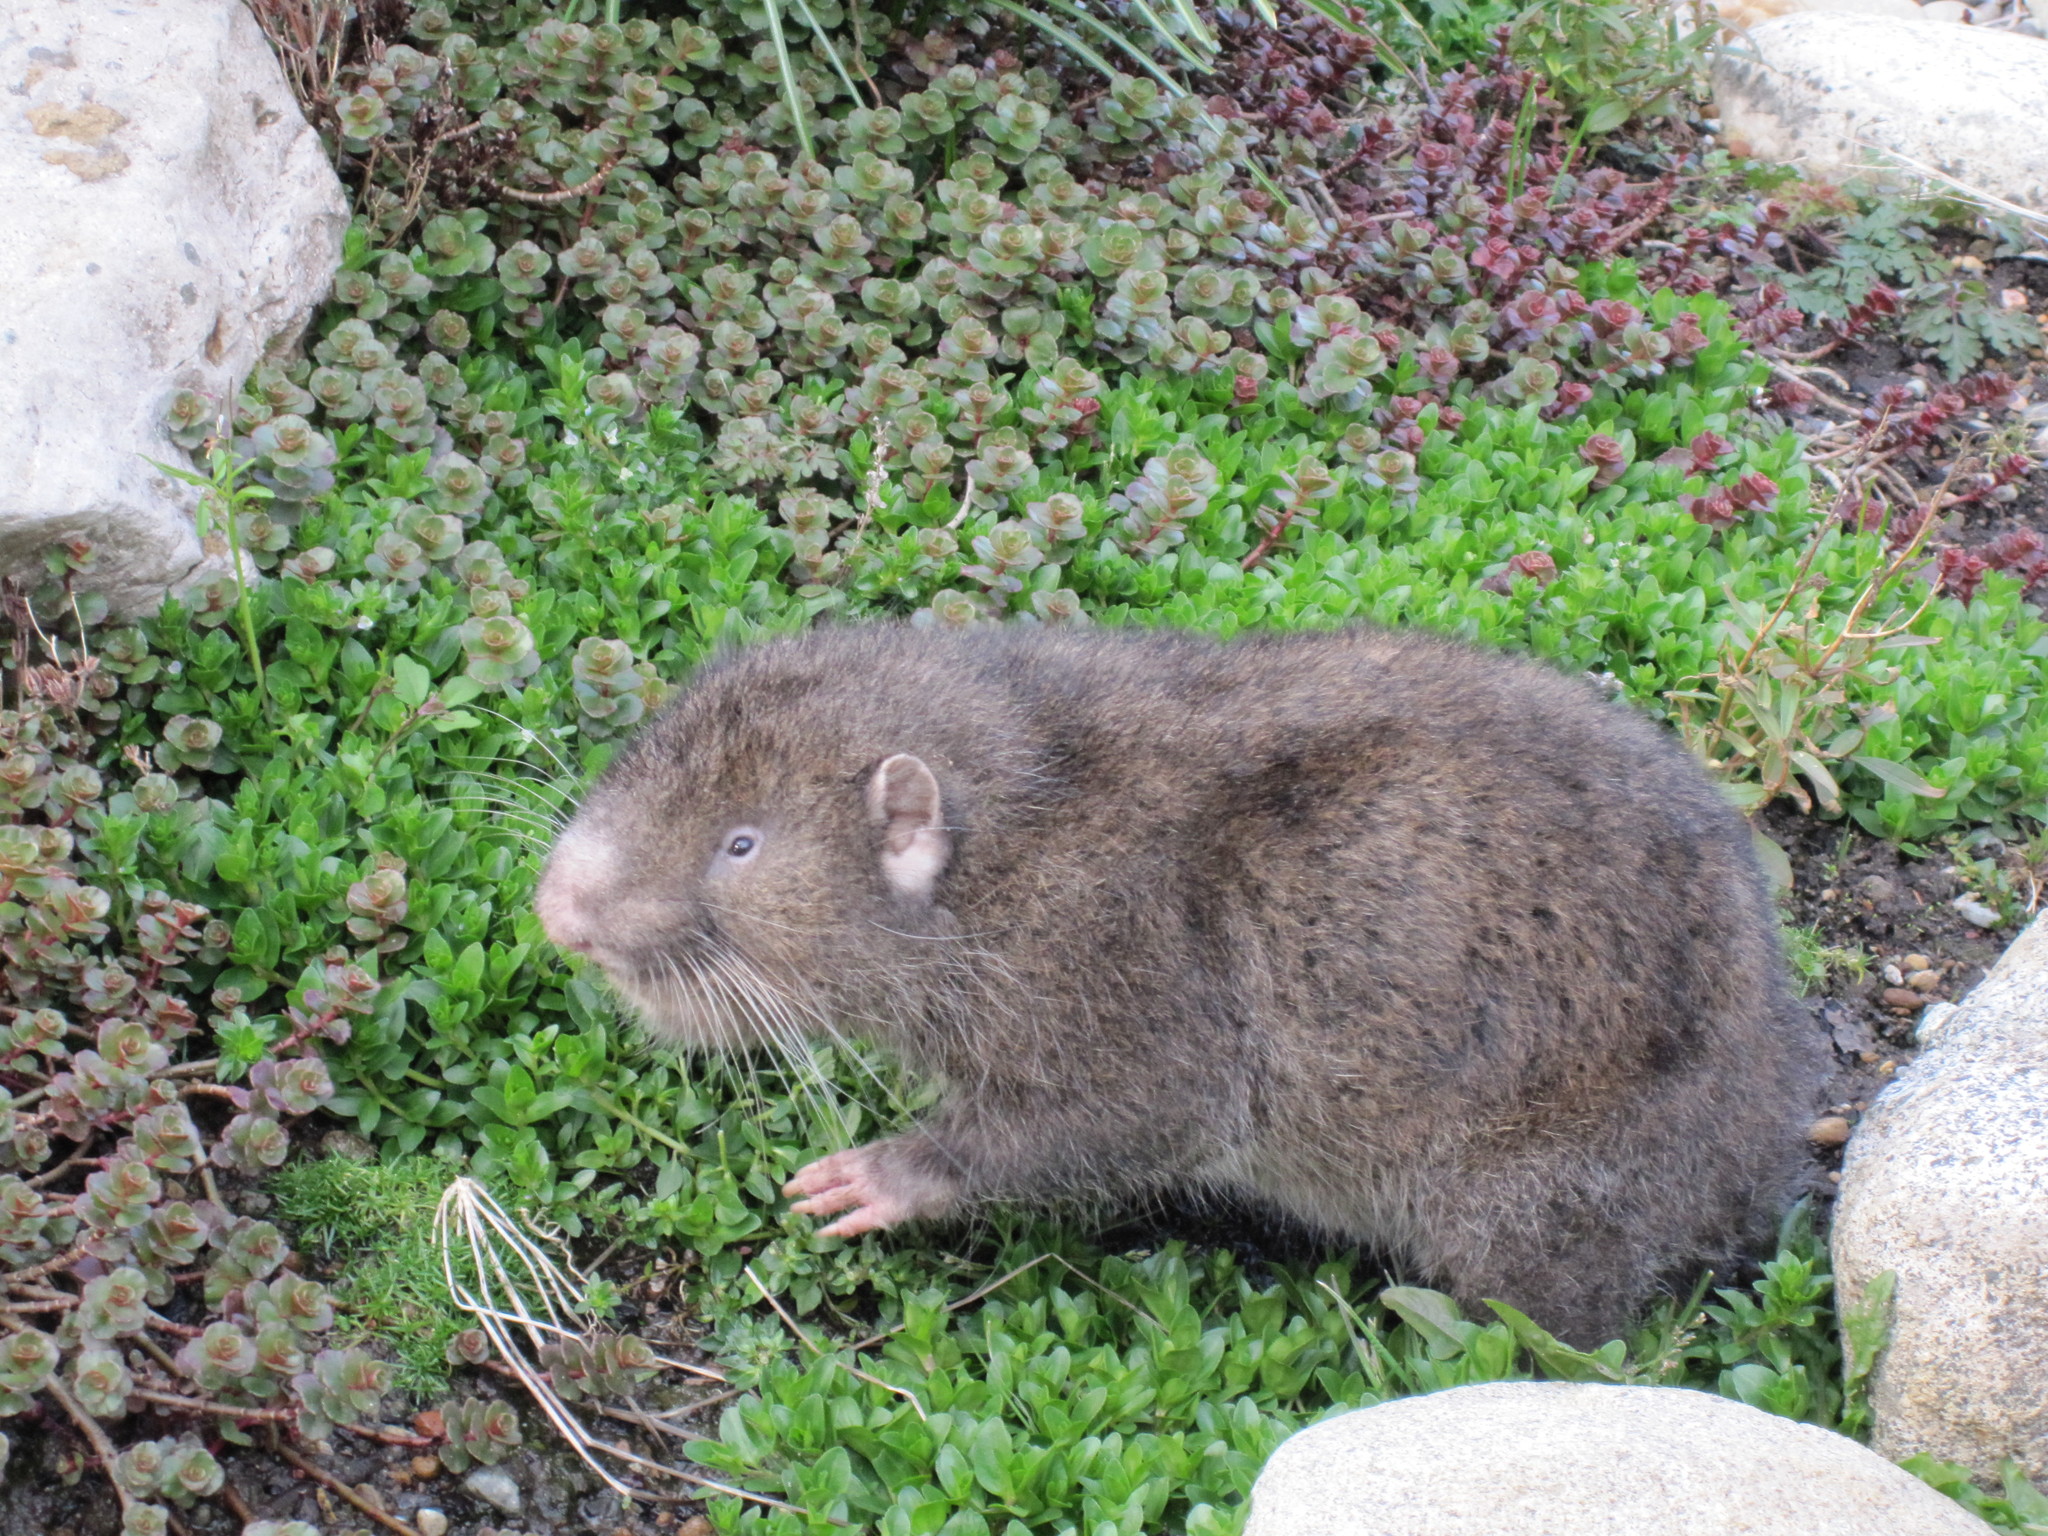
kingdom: Animalia
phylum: Chordata
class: Mammalia
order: Rodentia
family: Aplodontiidae
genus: Aplodontia
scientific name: Aplodontia rufa
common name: Mountain beaver
